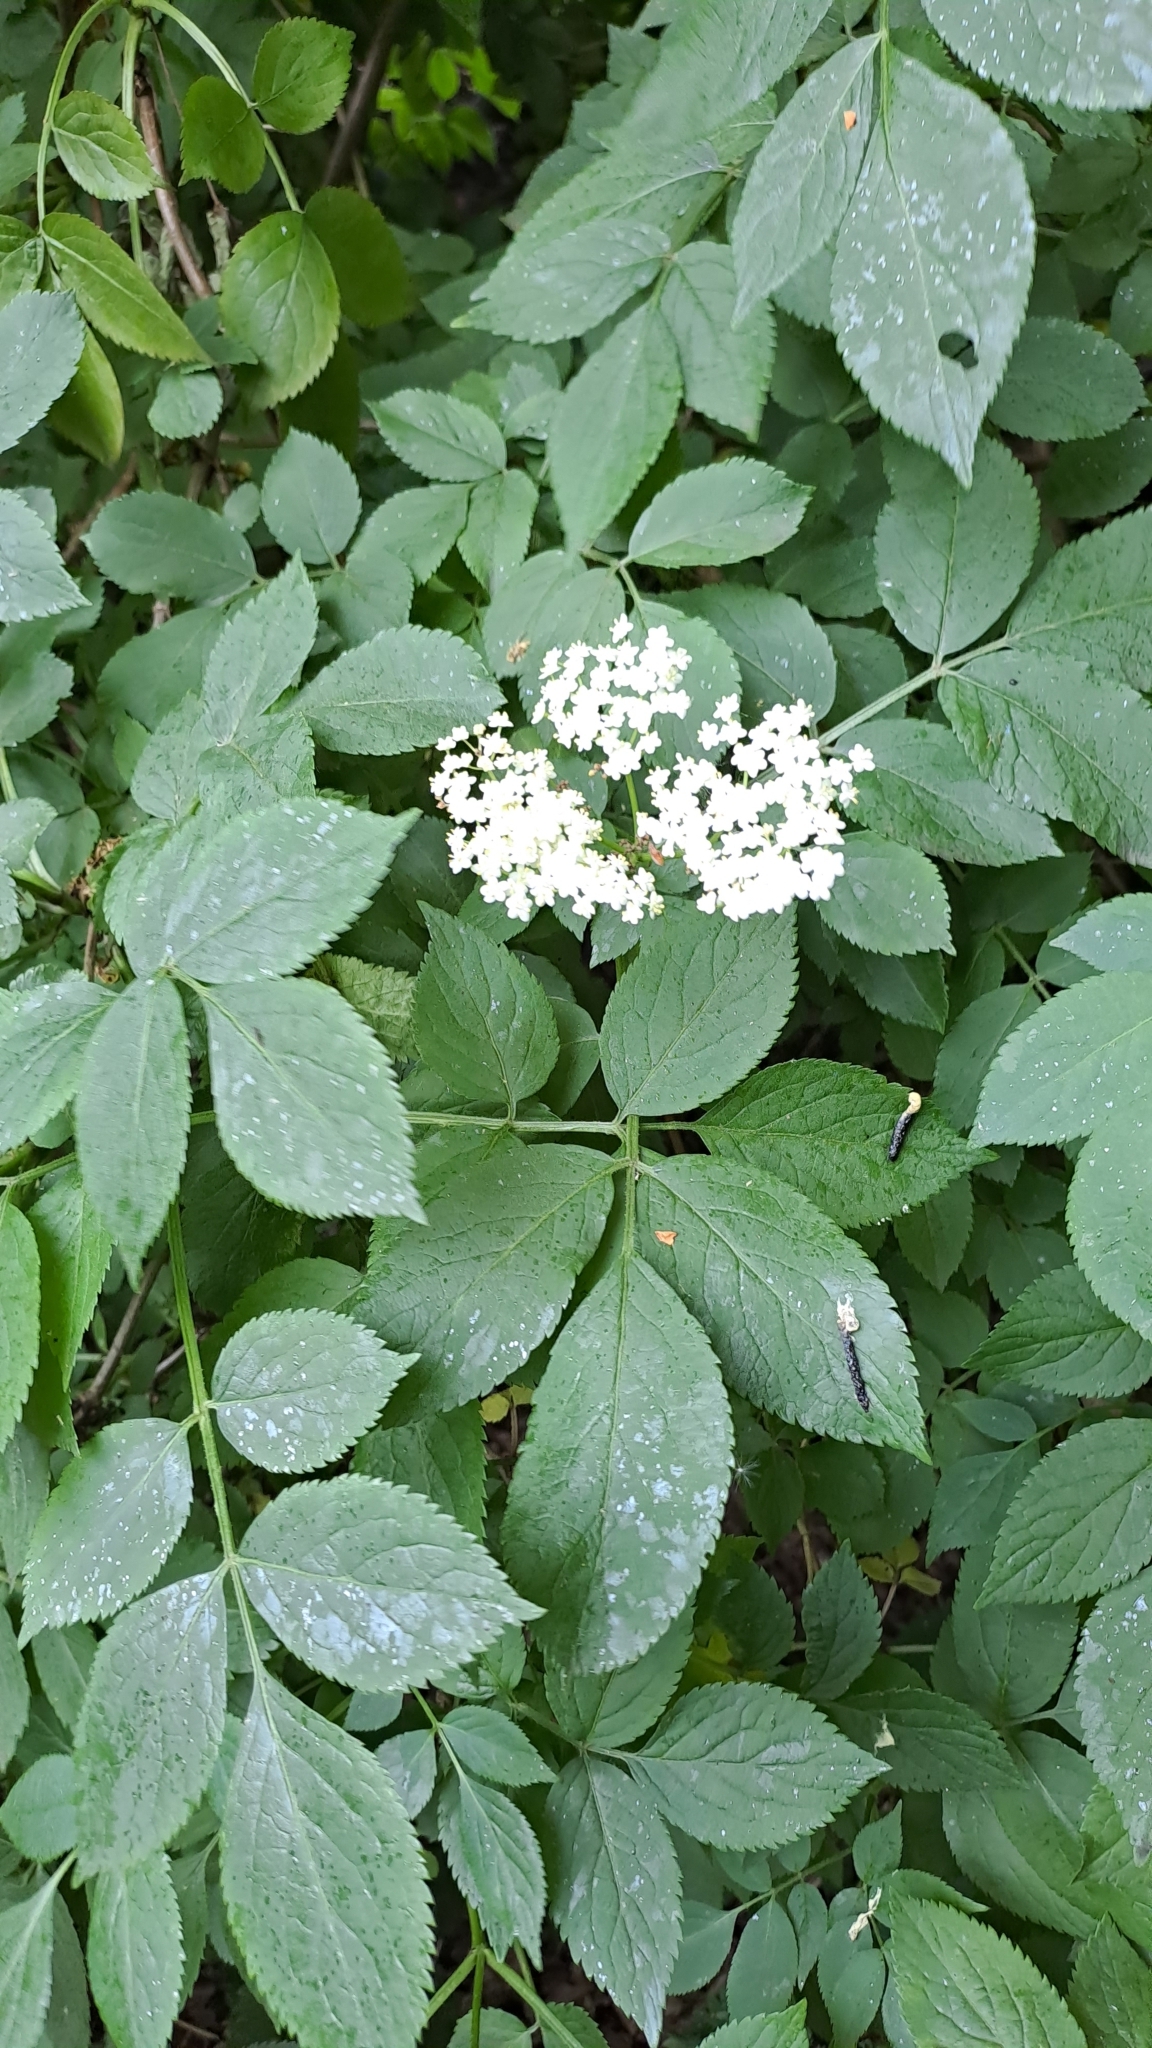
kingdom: Plantae
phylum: Tracheophyta
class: Magnoliopsida
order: Dipsacales
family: Viburnaceae
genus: Sambucus
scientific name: Sambucus nigra
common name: Elder
